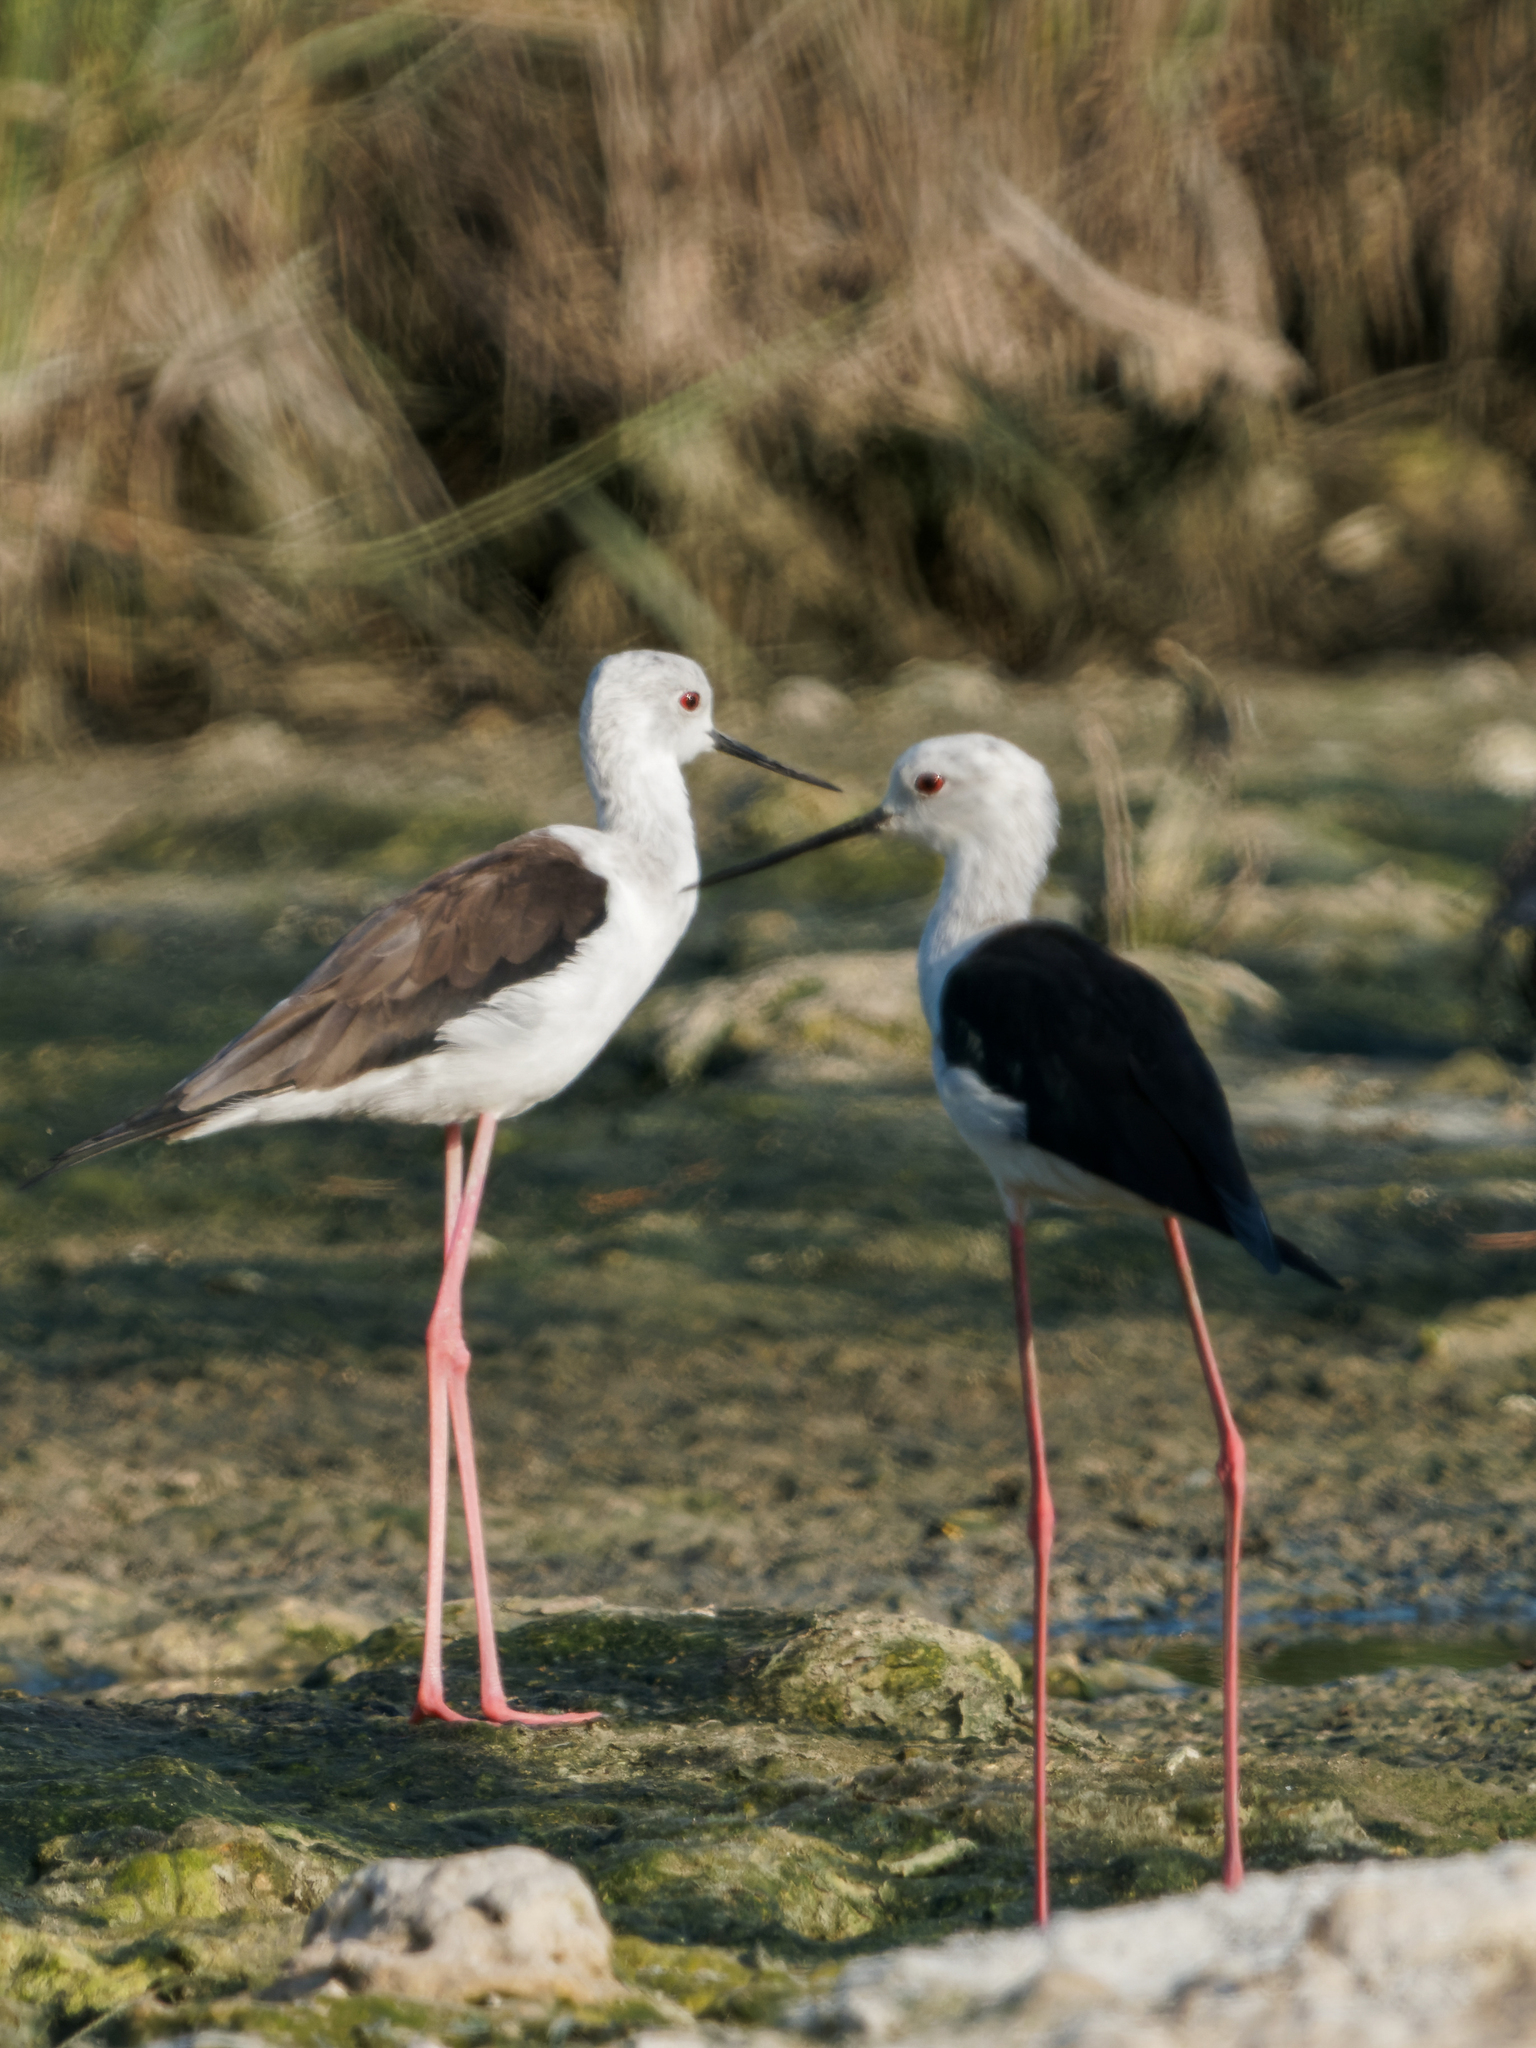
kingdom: Animalia
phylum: Chordata
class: Aves
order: Charadriiformes
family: Recurvirostridae
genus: Himantopus
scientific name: Himantopus himantopus
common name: Black-winged stilt
